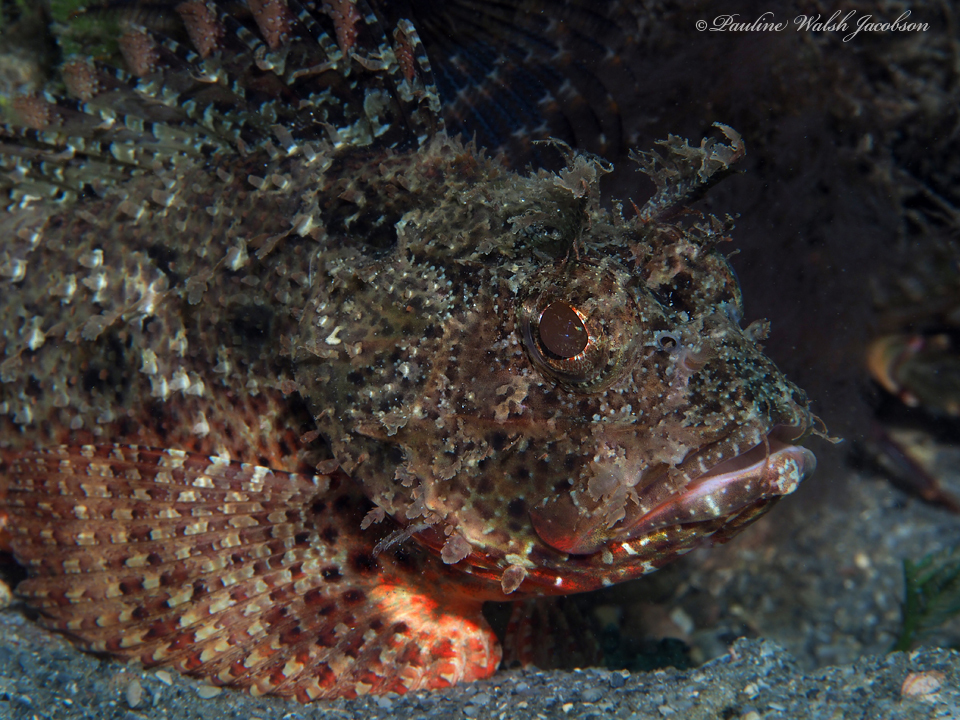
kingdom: Animalia
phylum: Chordata
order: Scorpaeniformes
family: Scorpaenidae
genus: Scorpaena
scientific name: Scorpaena brasiliensis
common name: Barbfish
